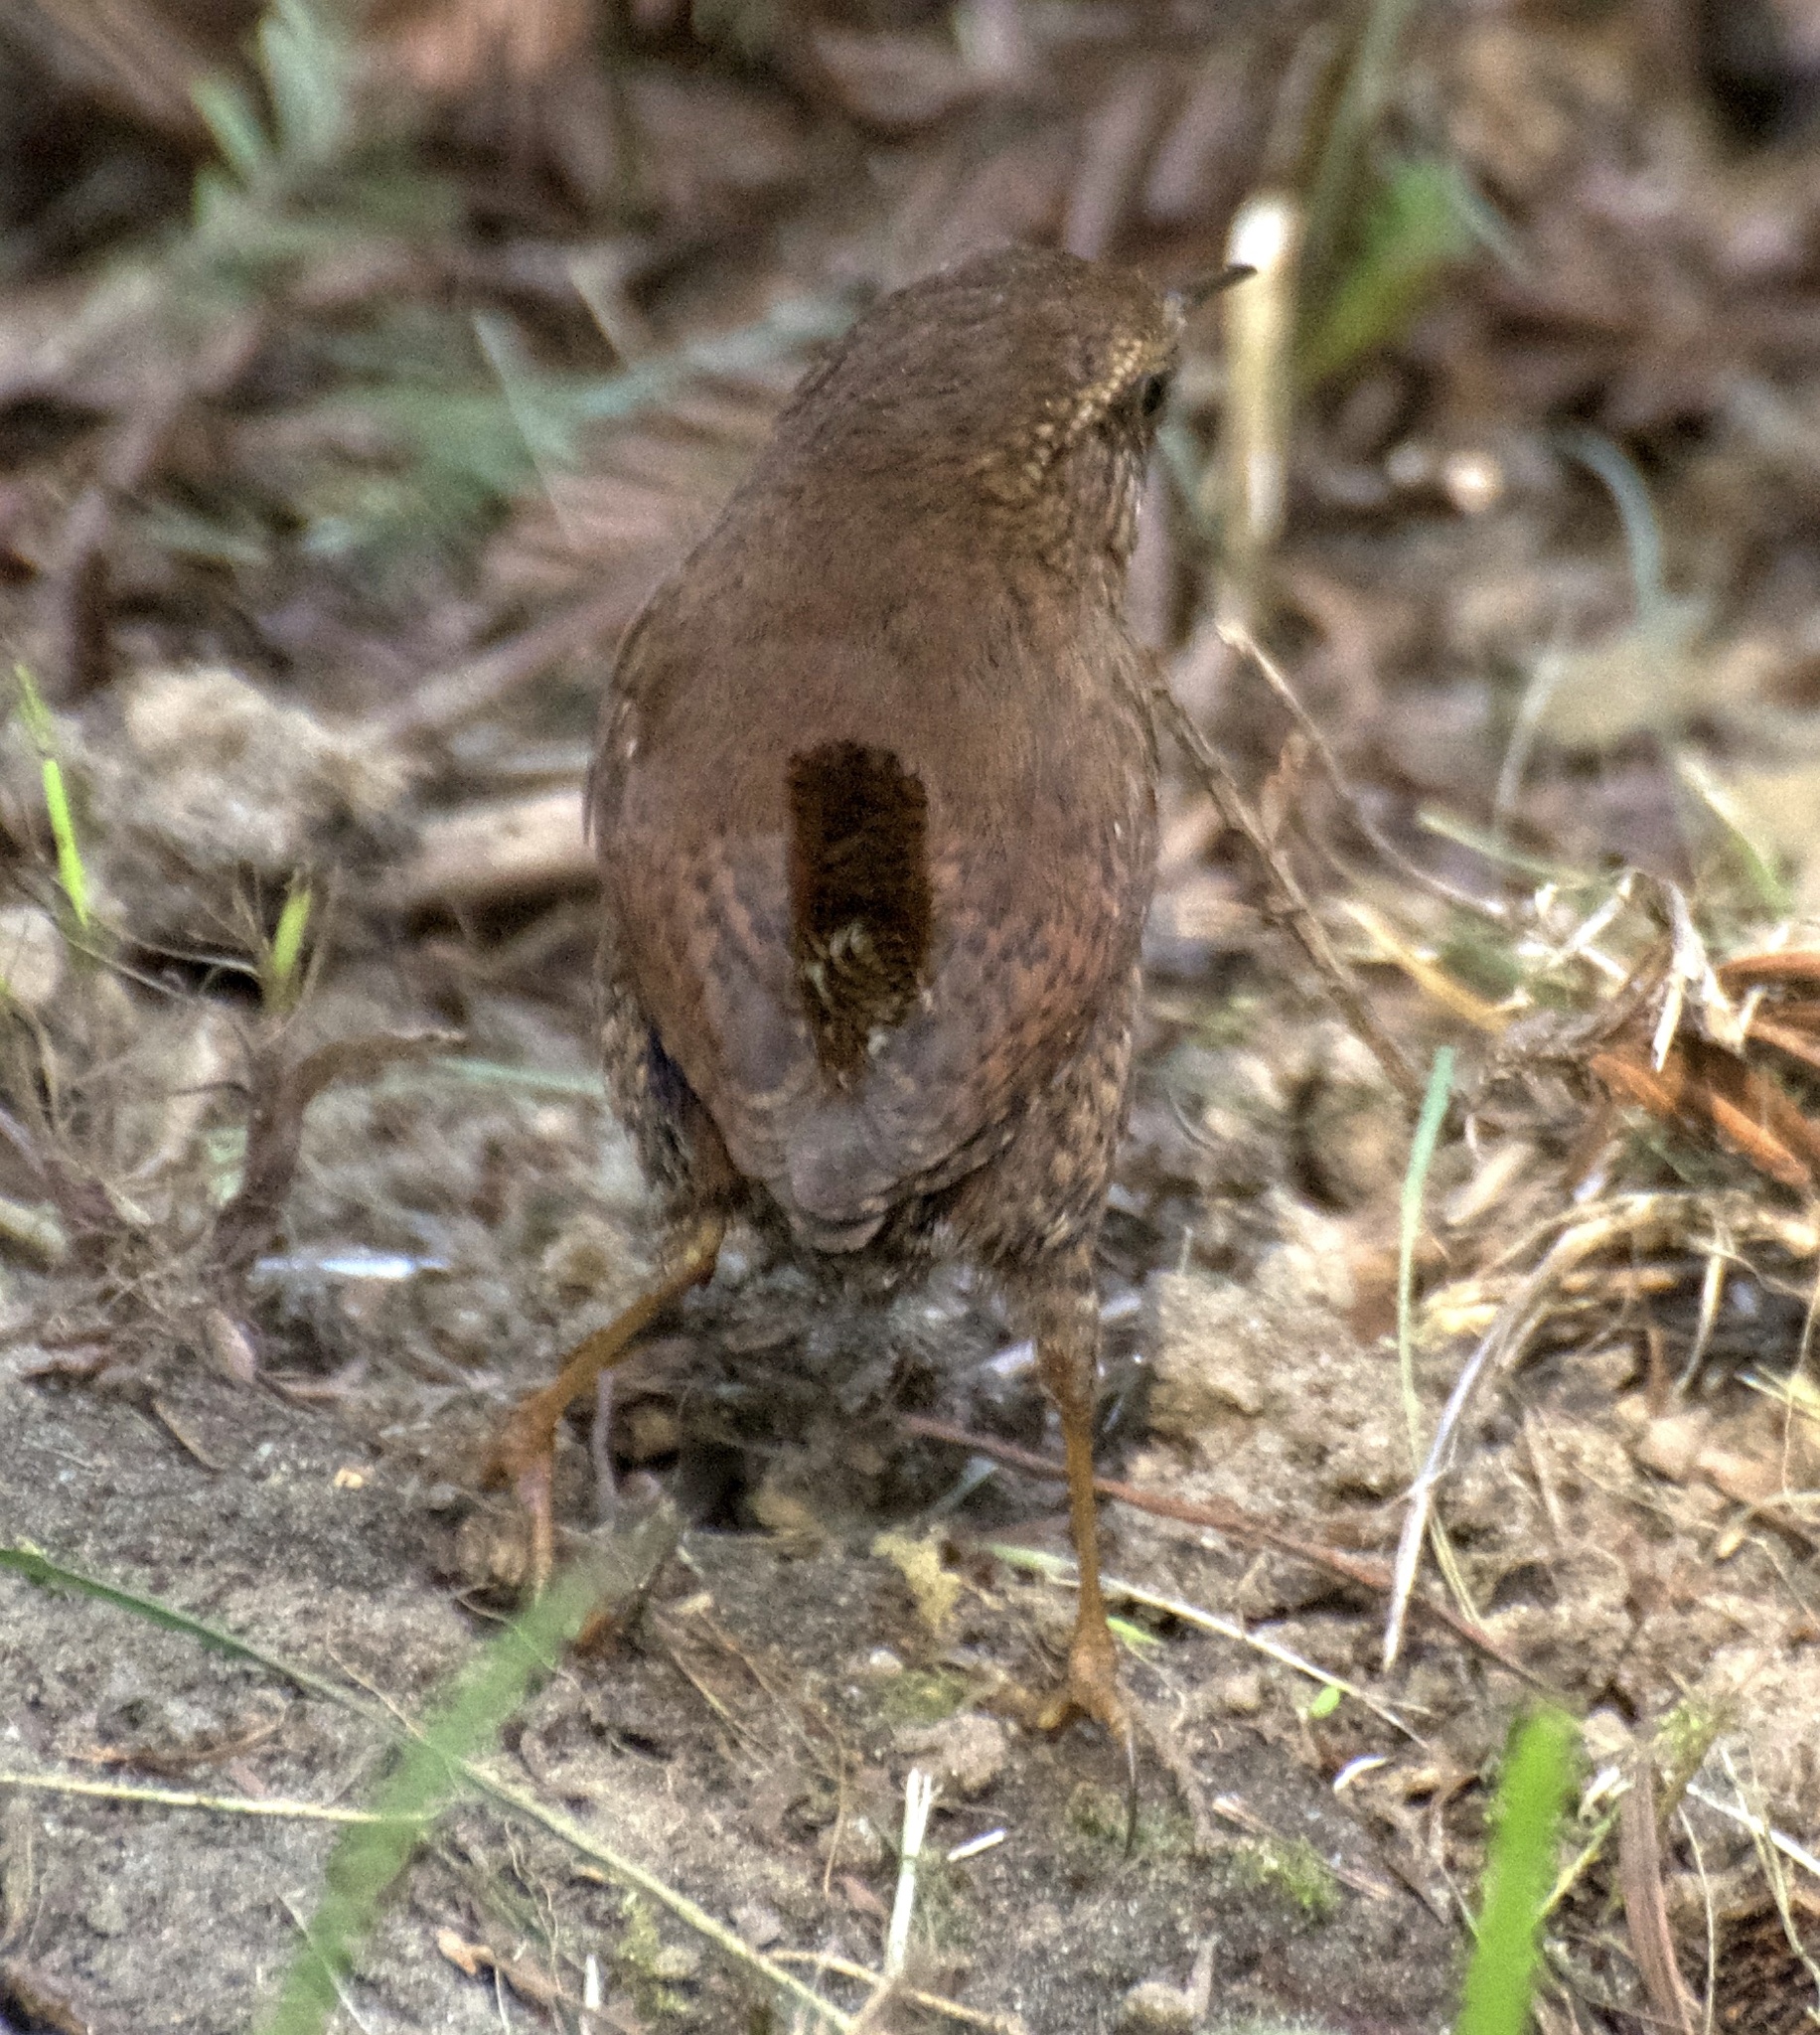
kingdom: Animalia
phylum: Chordata
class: Aves
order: Passeriformes
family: Troglodytidae
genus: Troglodytes
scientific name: Troglodytes pacificus
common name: Pacific wren
